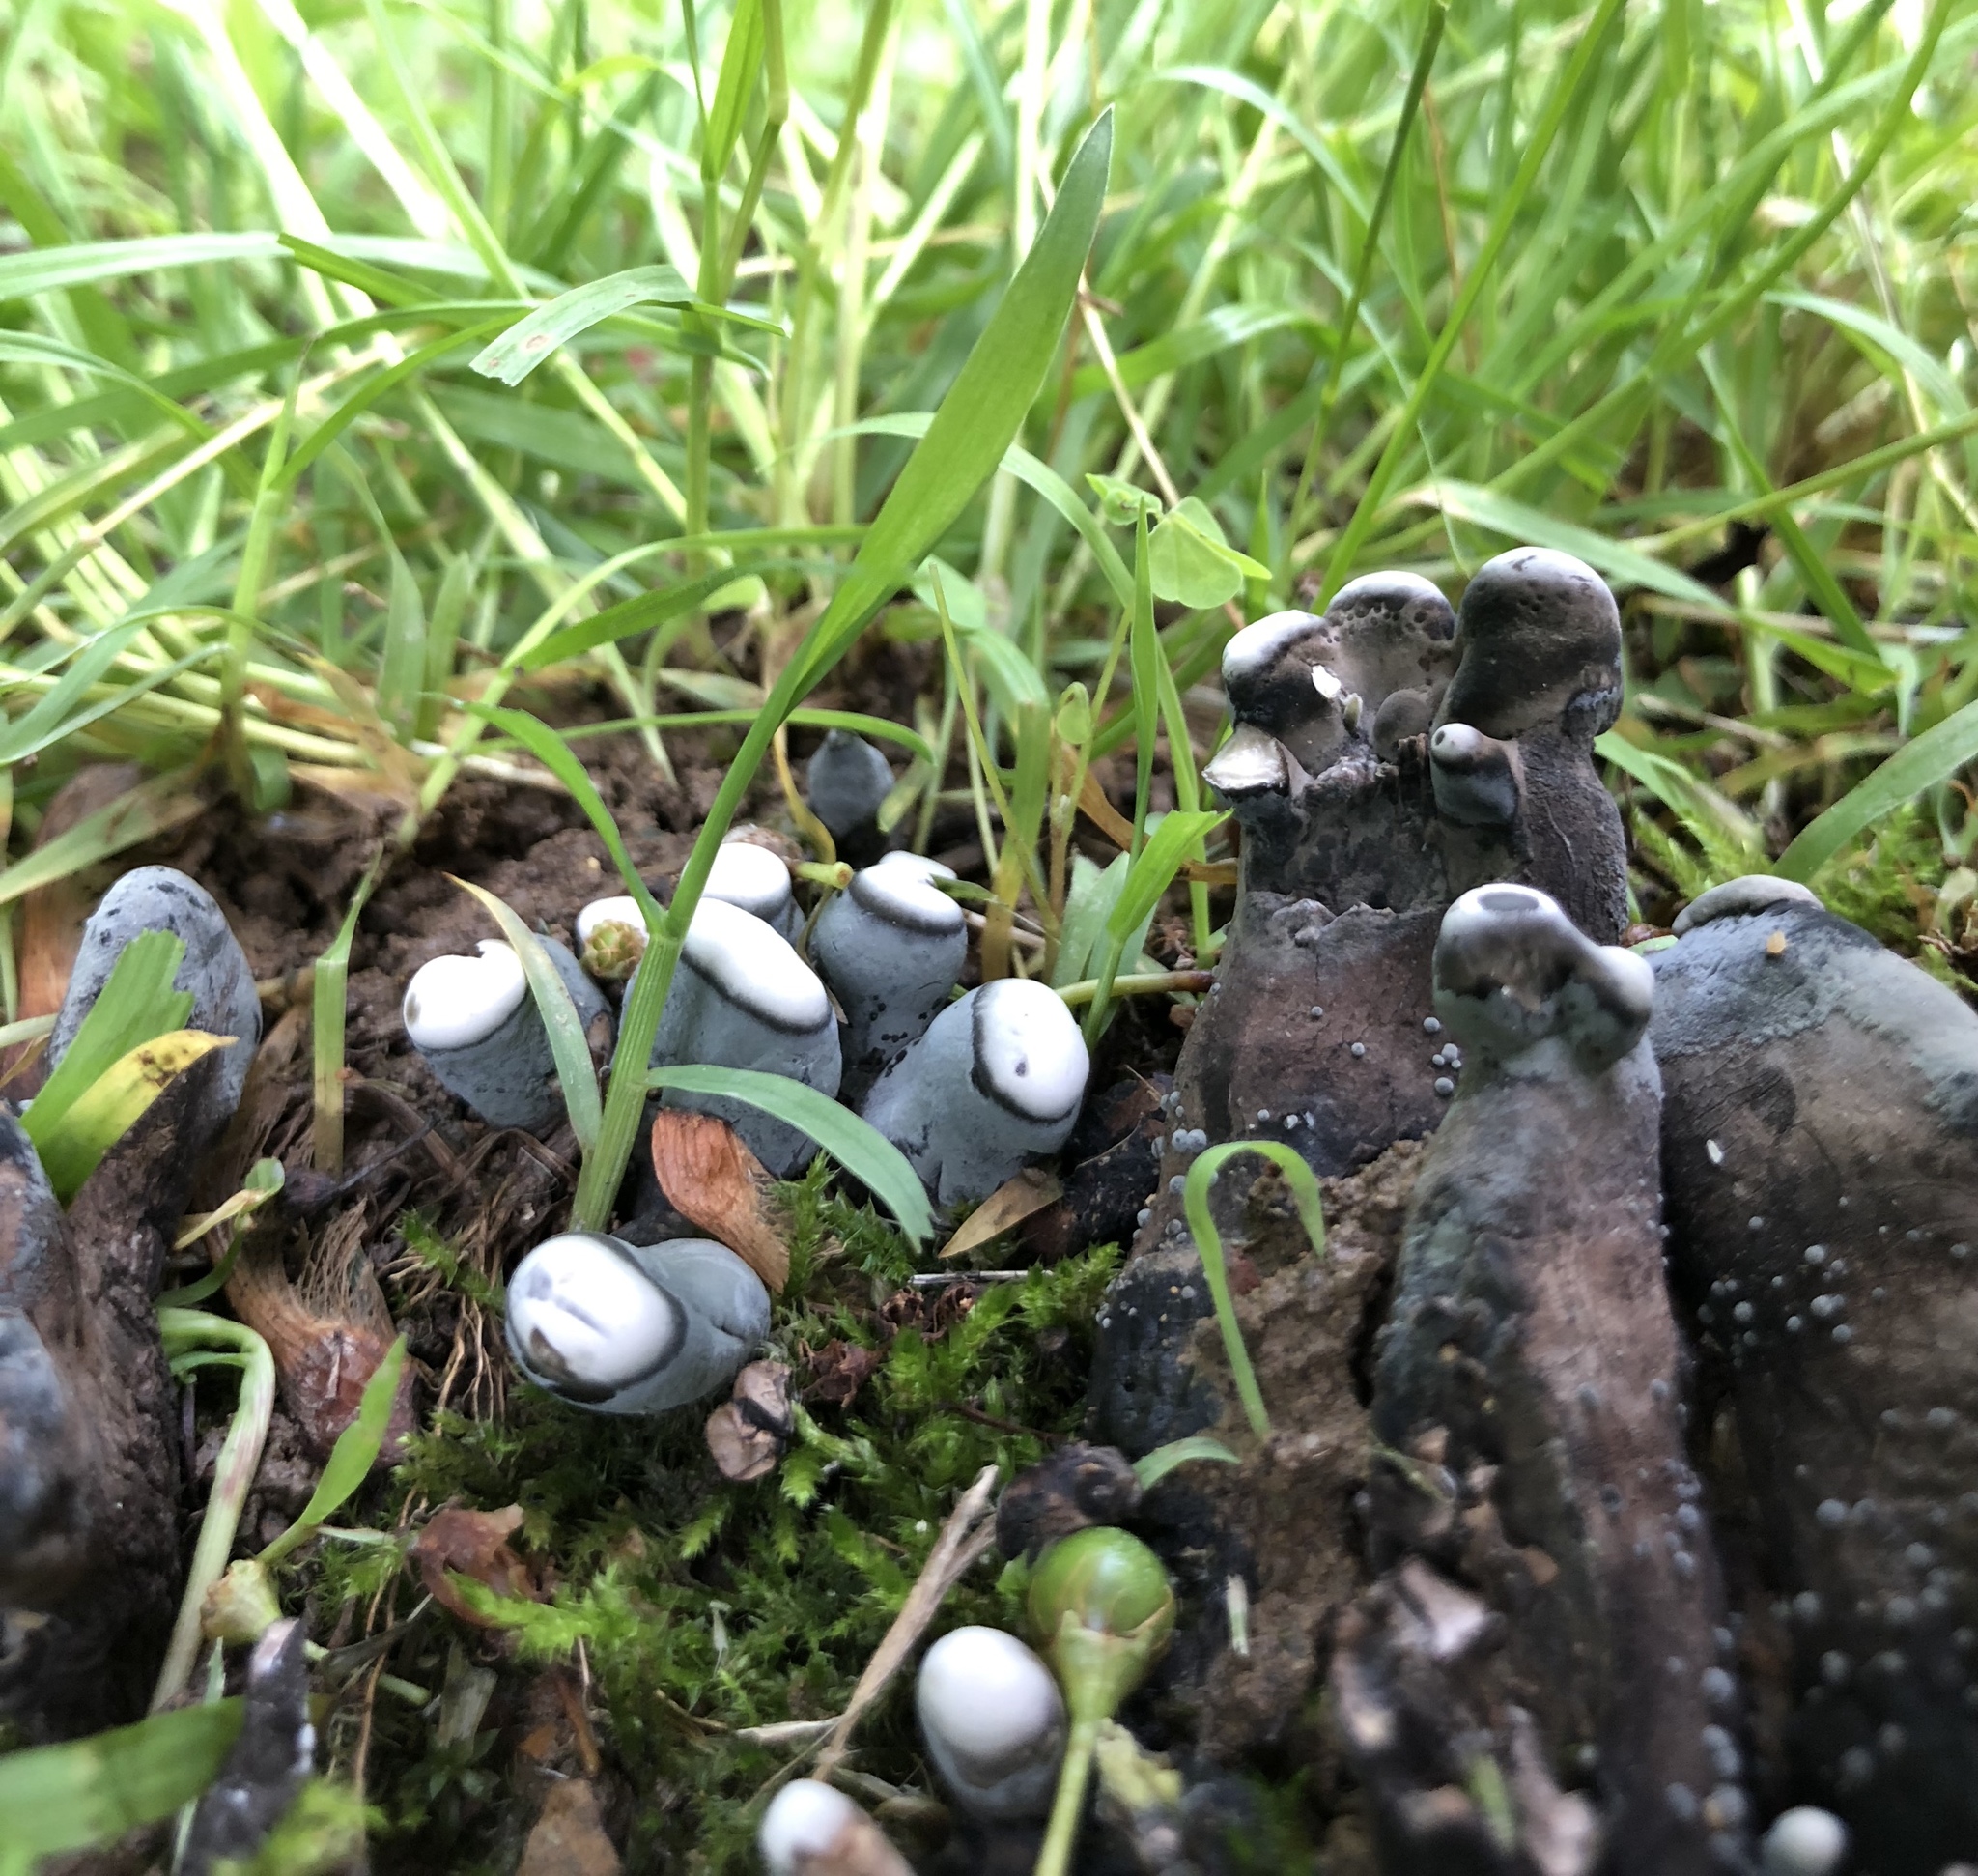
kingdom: Fungi
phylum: Ascomycota
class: Sordariomycetes
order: Xylariales
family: Xylariaceae
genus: Xylaria
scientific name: Xylaria polymorpha
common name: Dead man's fingers
